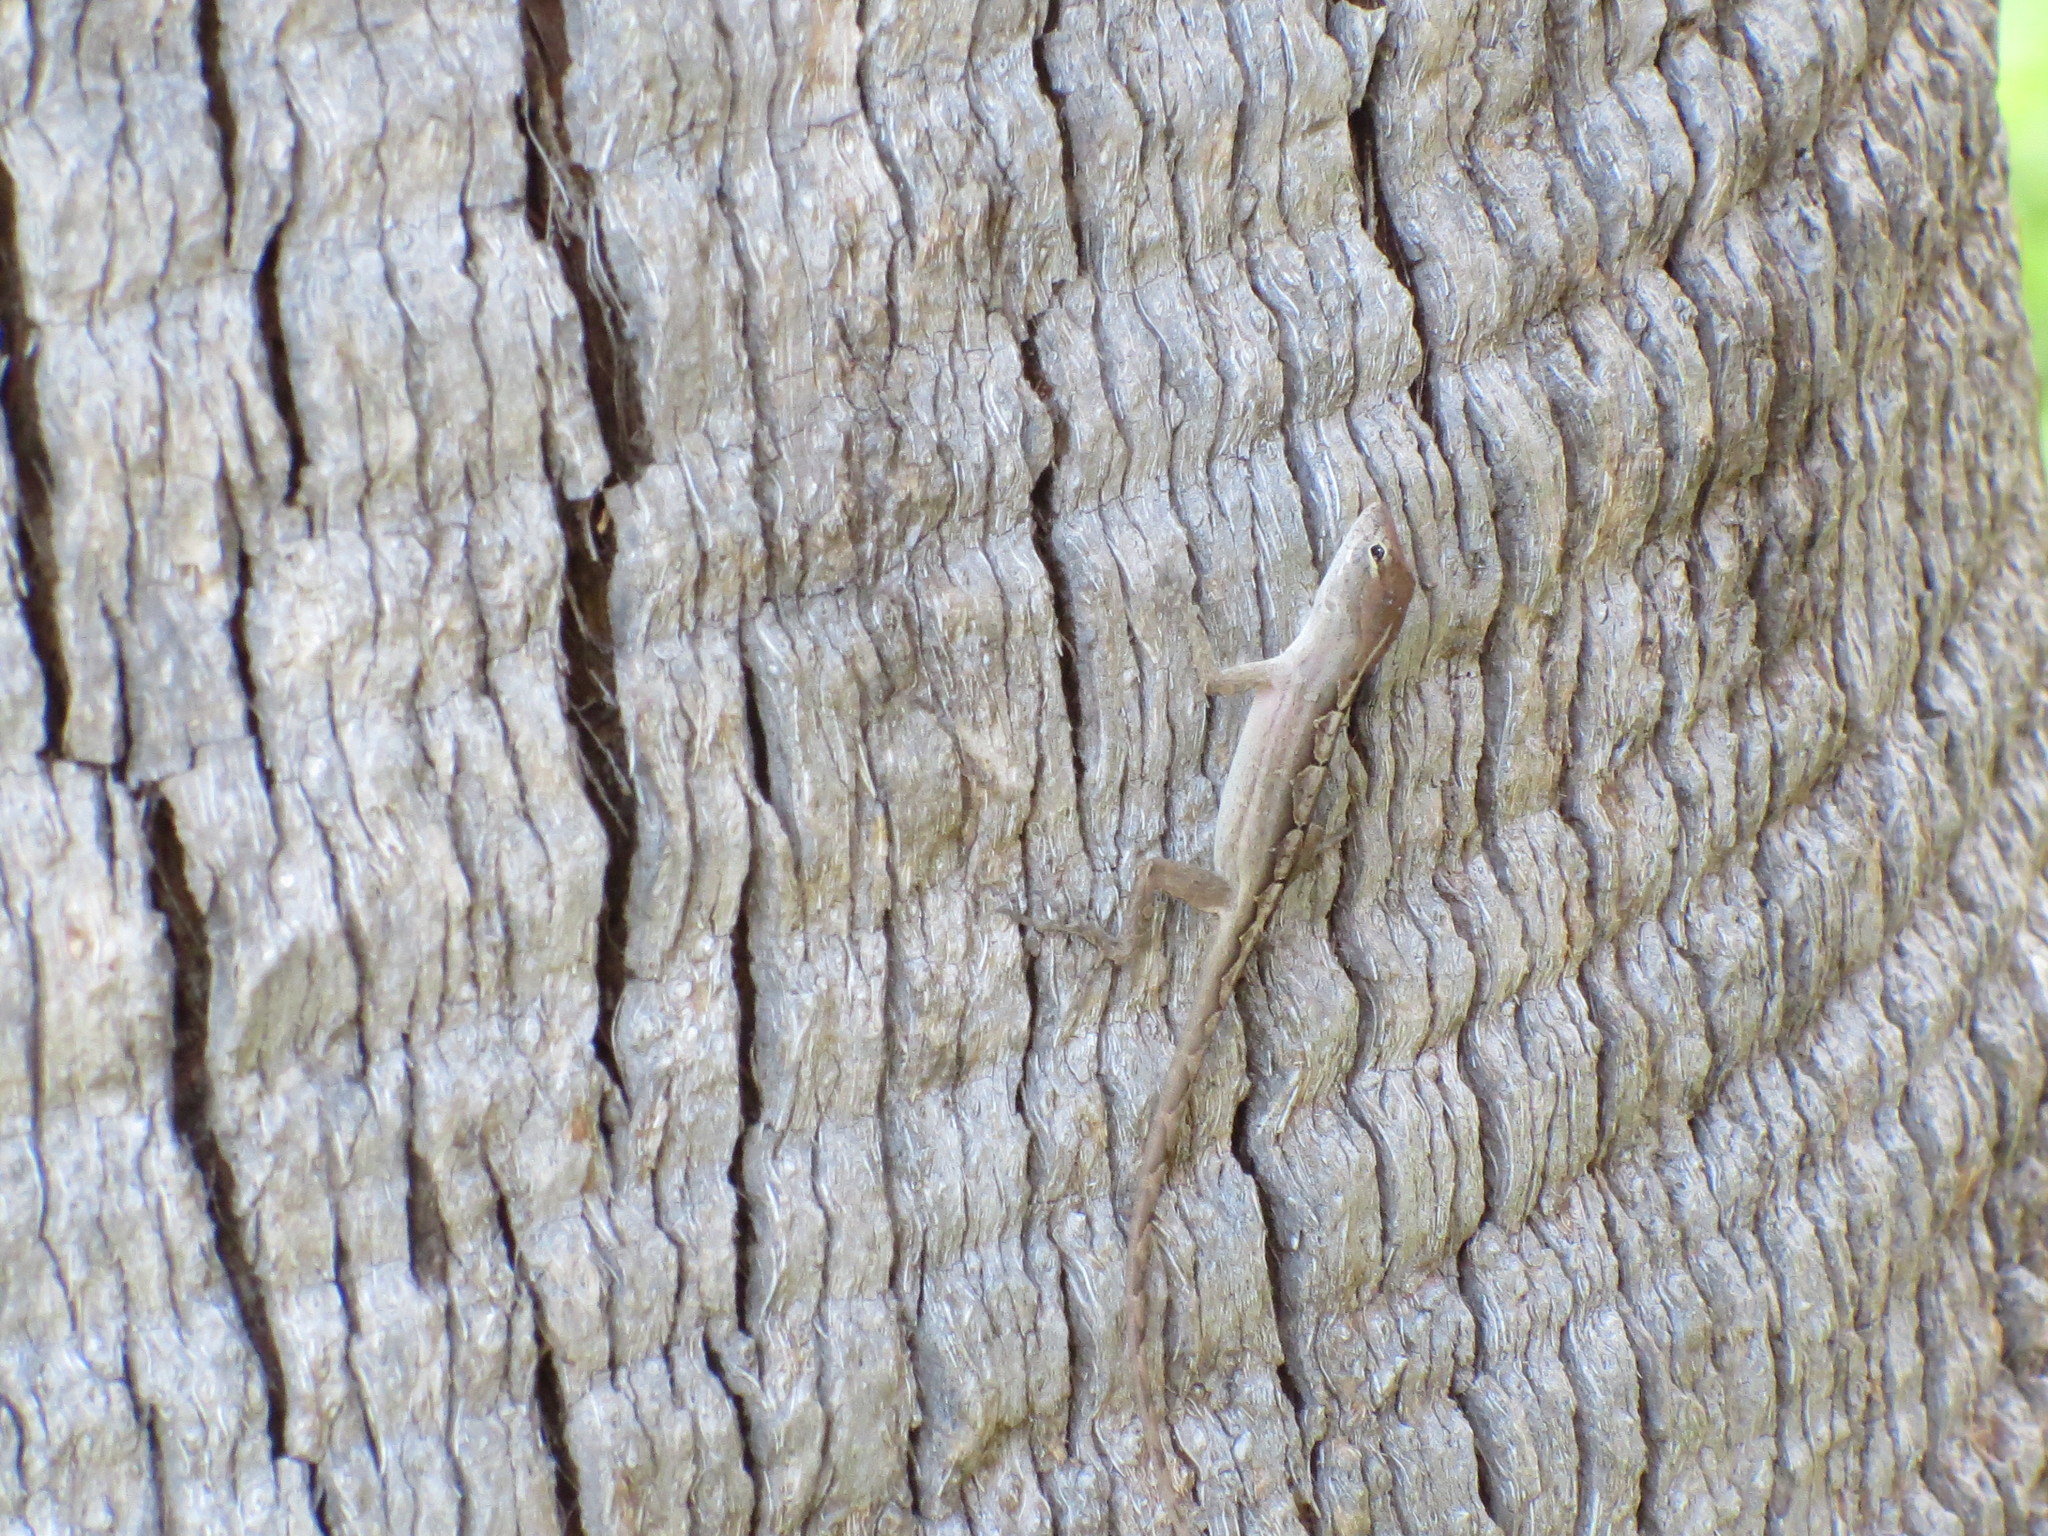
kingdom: Animalia
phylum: Chordata
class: Squamata
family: Dactyloidae
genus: Anolis
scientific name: Anolis sagrei
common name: Brown anole
